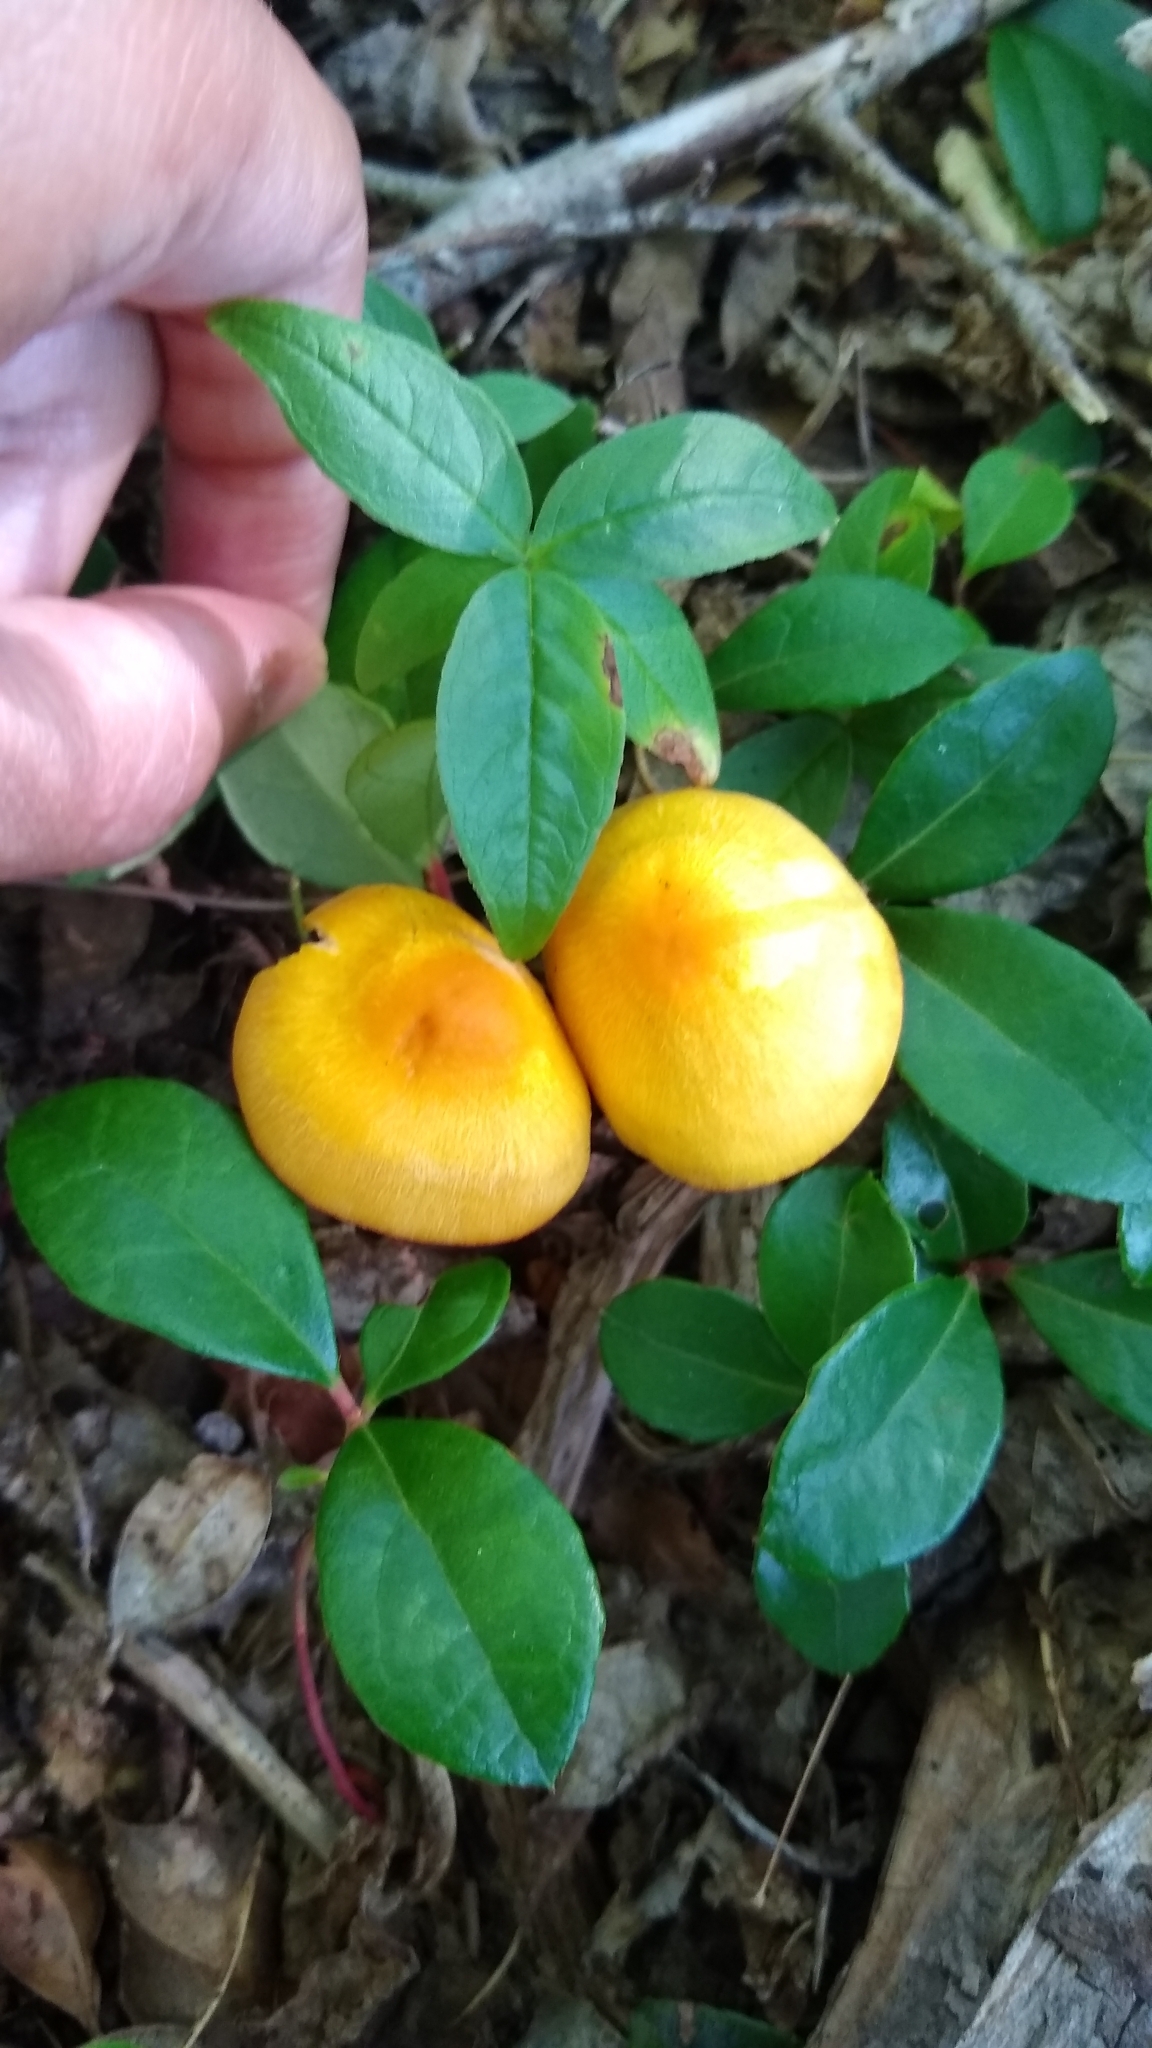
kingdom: Fungi
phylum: Basidiomycota
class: Agaricomycetes
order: Agaricales
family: Hygrophoraceae
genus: Humidicutis
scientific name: Humidicutis marginata
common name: Orange gilled waxcap
